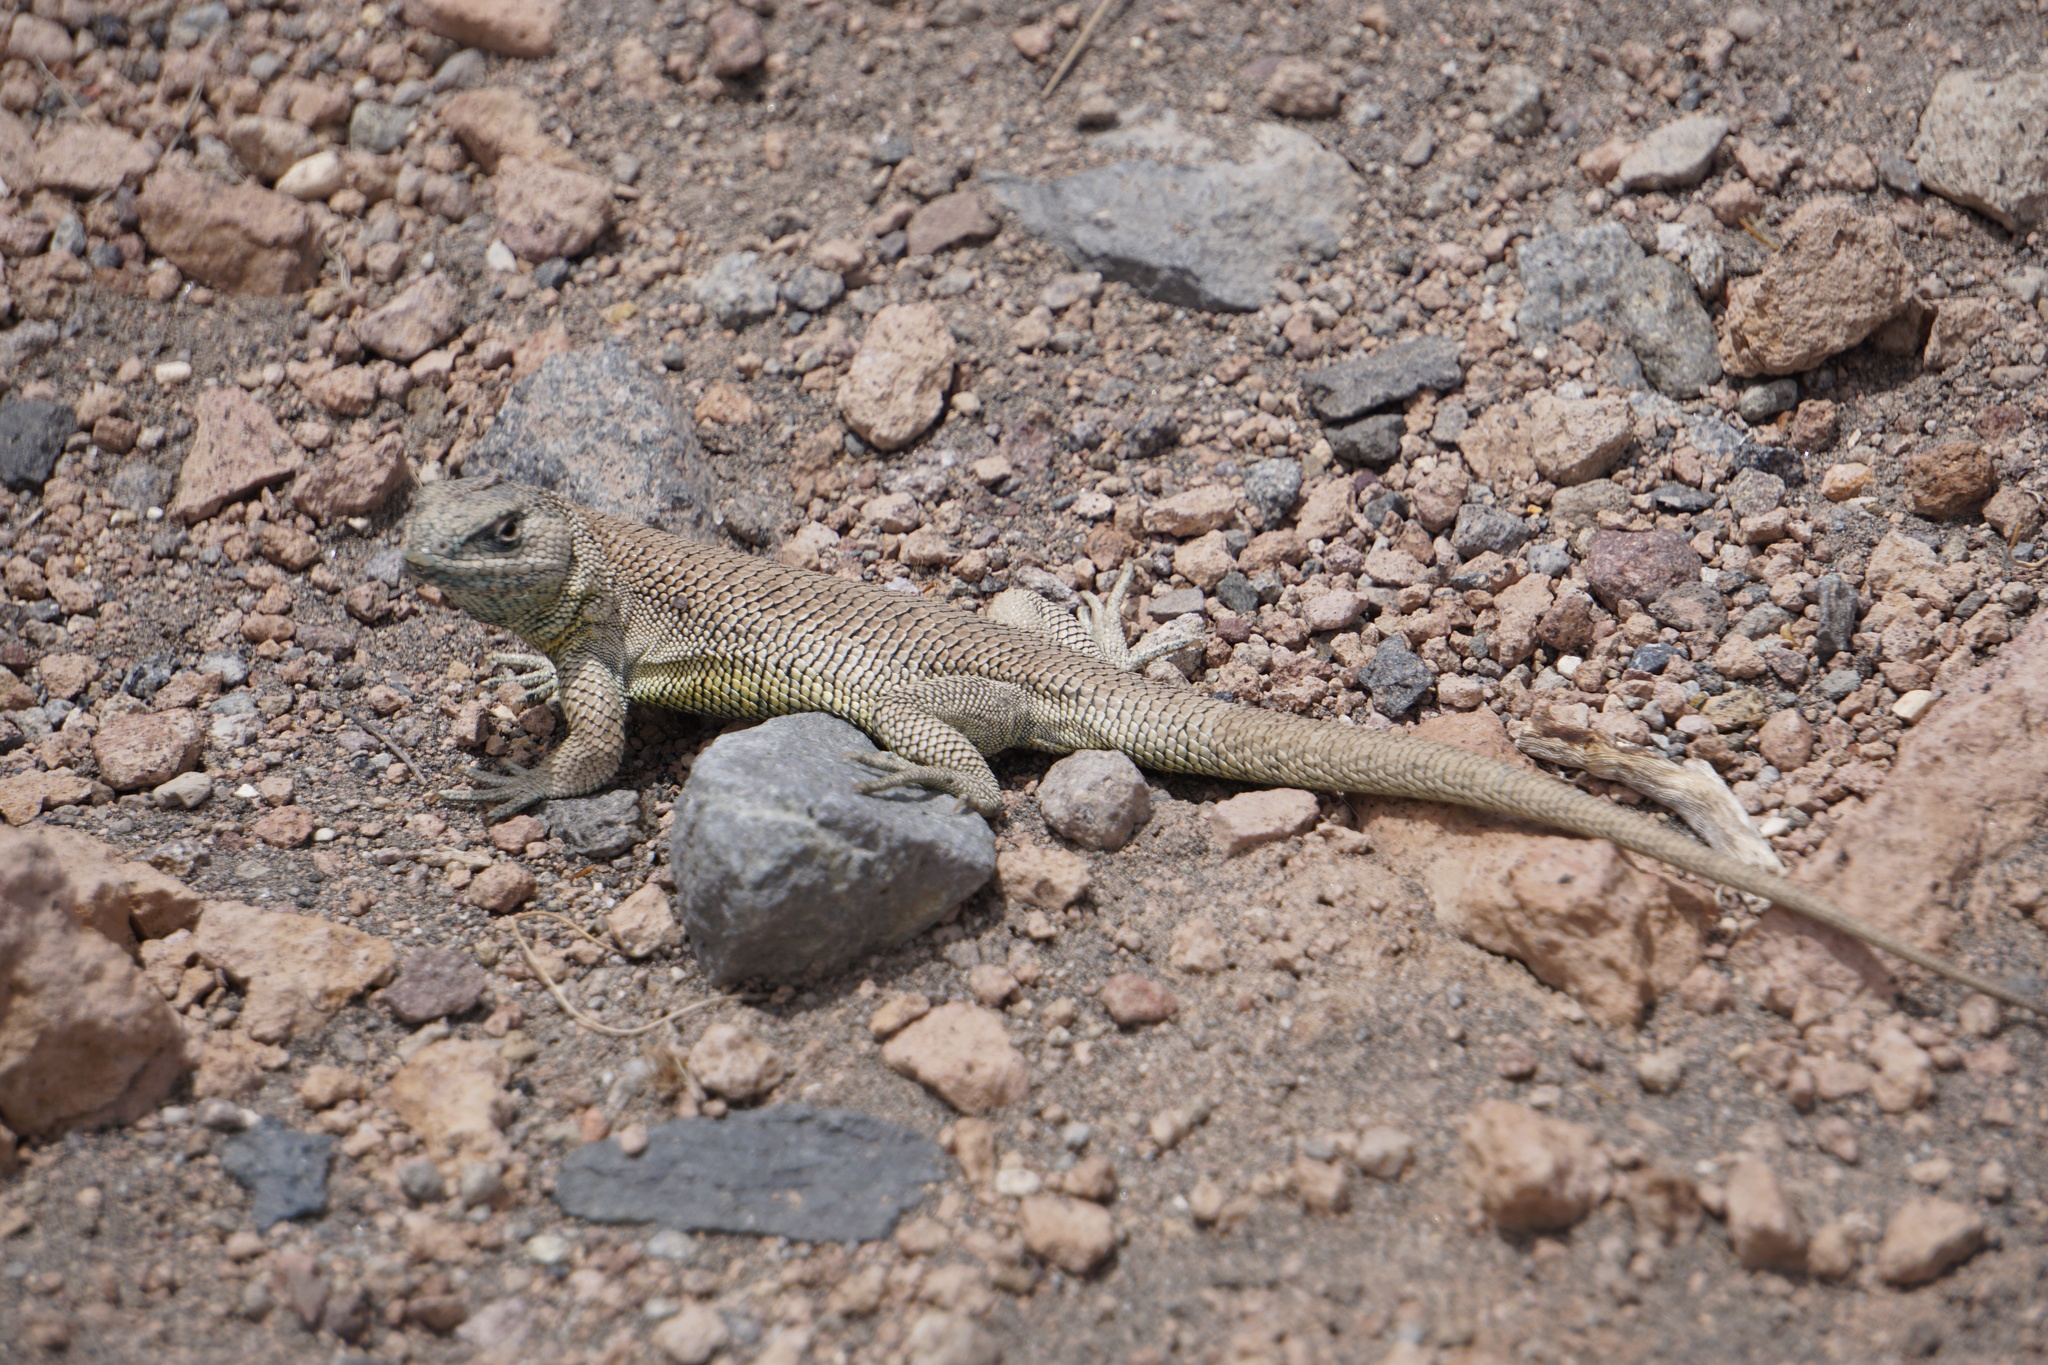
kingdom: Animalia
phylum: Chordata
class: Squamata
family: Liolaemidae
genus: Liolaemus
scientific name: Liolaemus jamesi
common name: James' tree iguana
